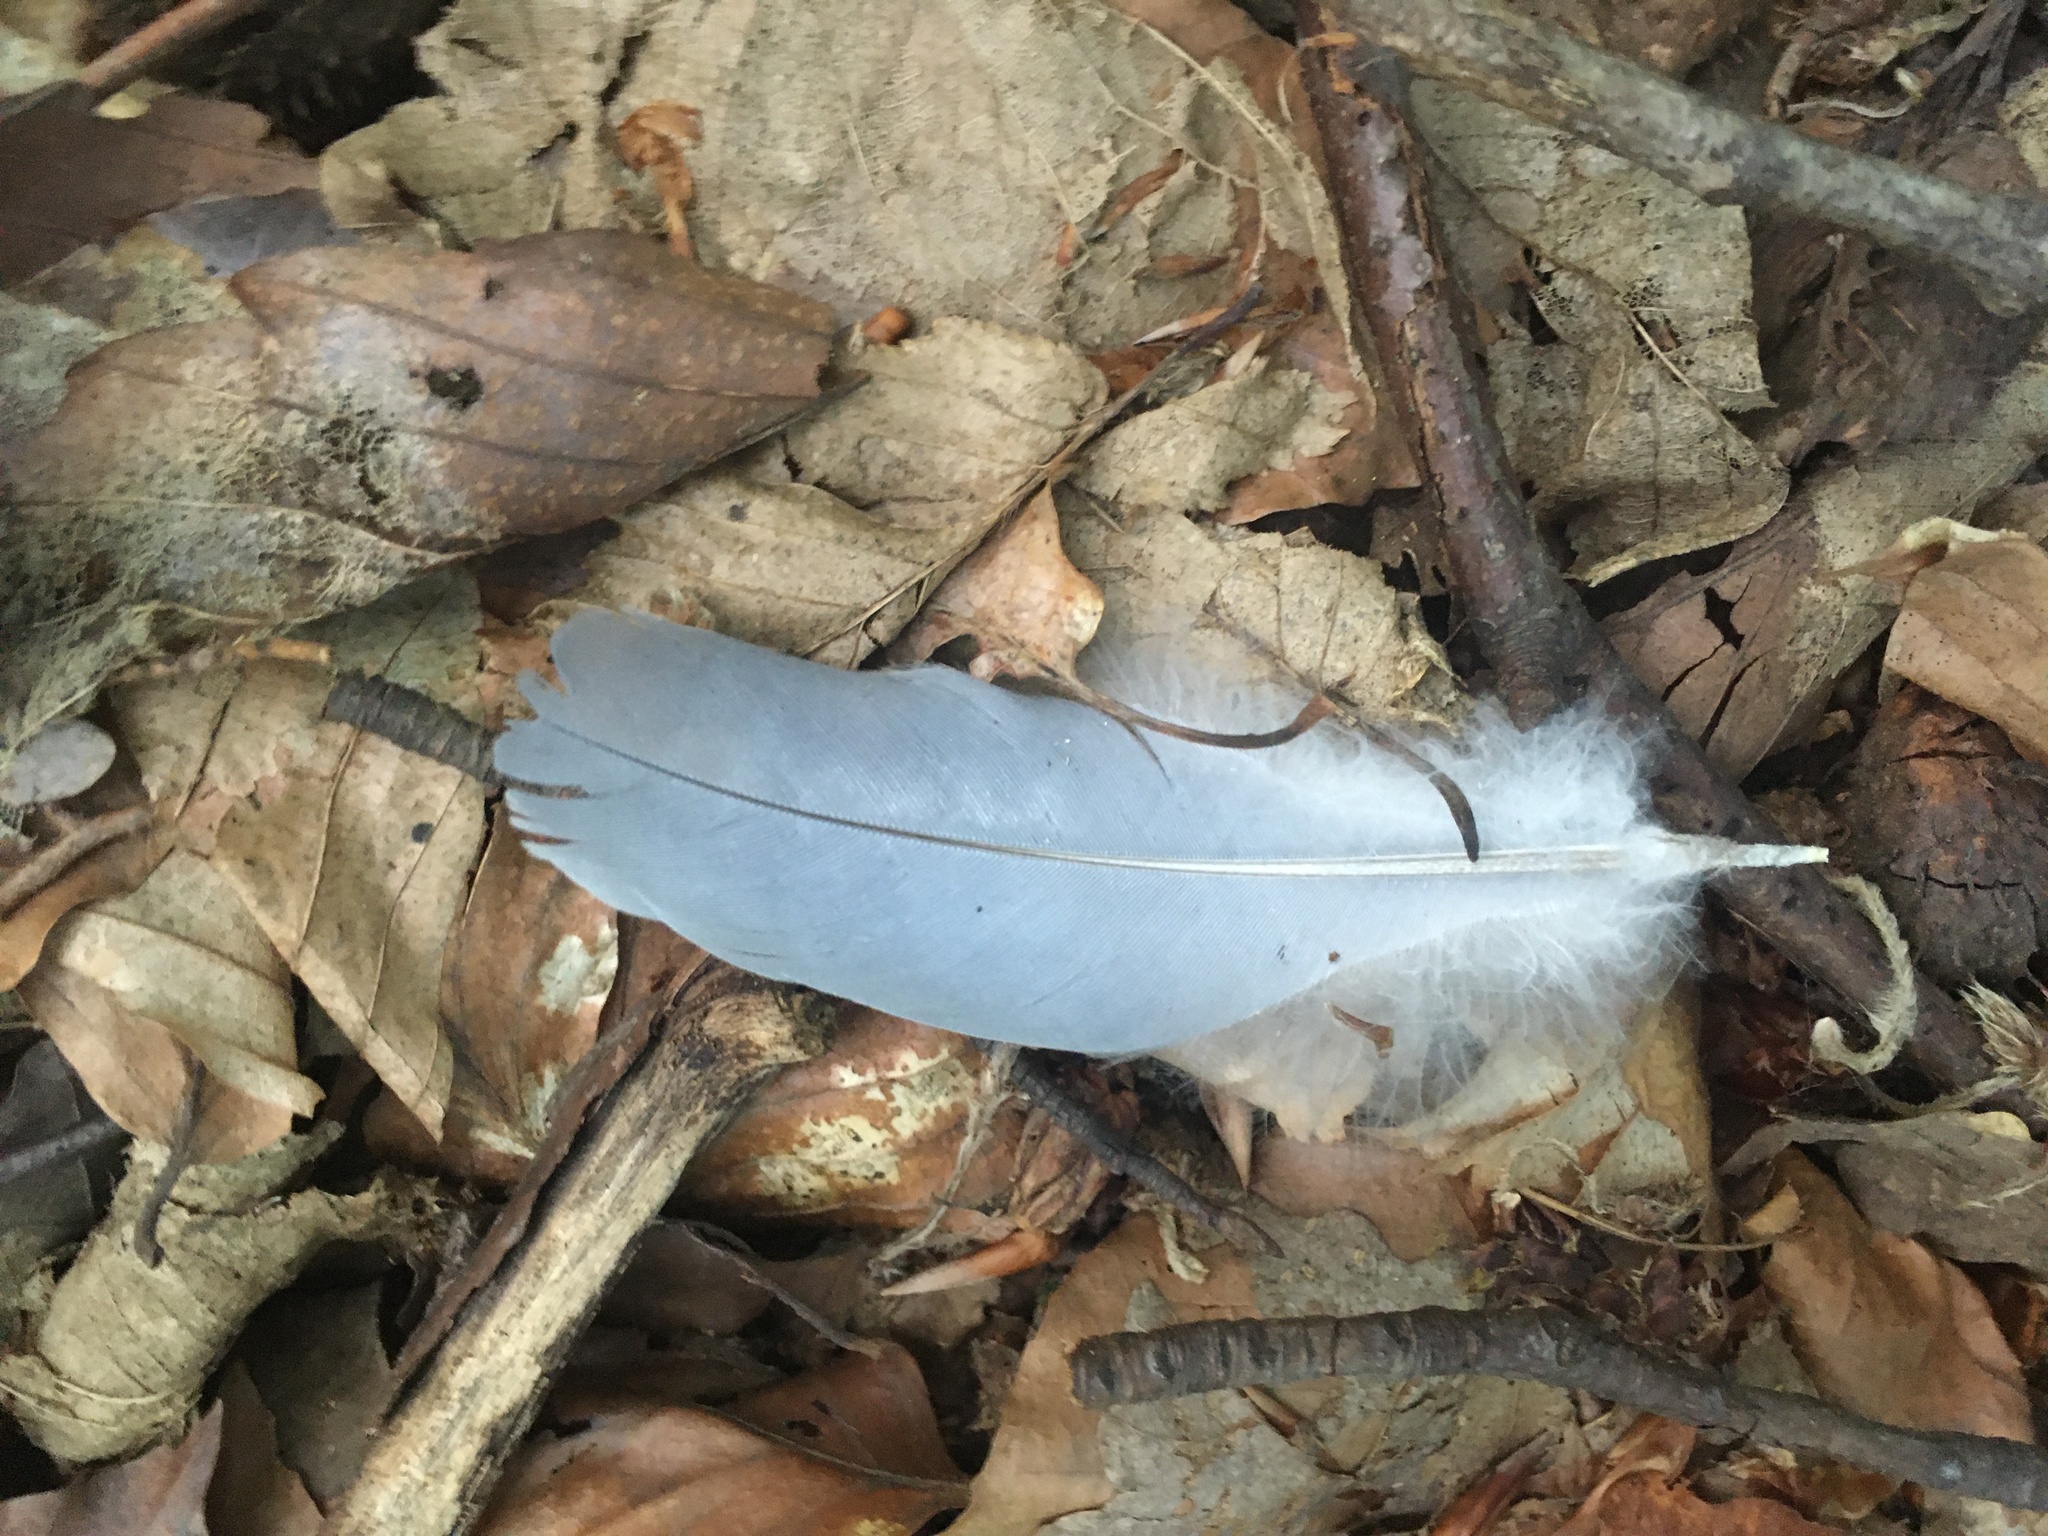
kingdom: Animalia
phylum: Chordata
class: Aves
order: Columbiformes
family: Columbidae
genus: Streptopelia
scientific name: Streptopelia decaocto
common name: Eurasian collared dove
